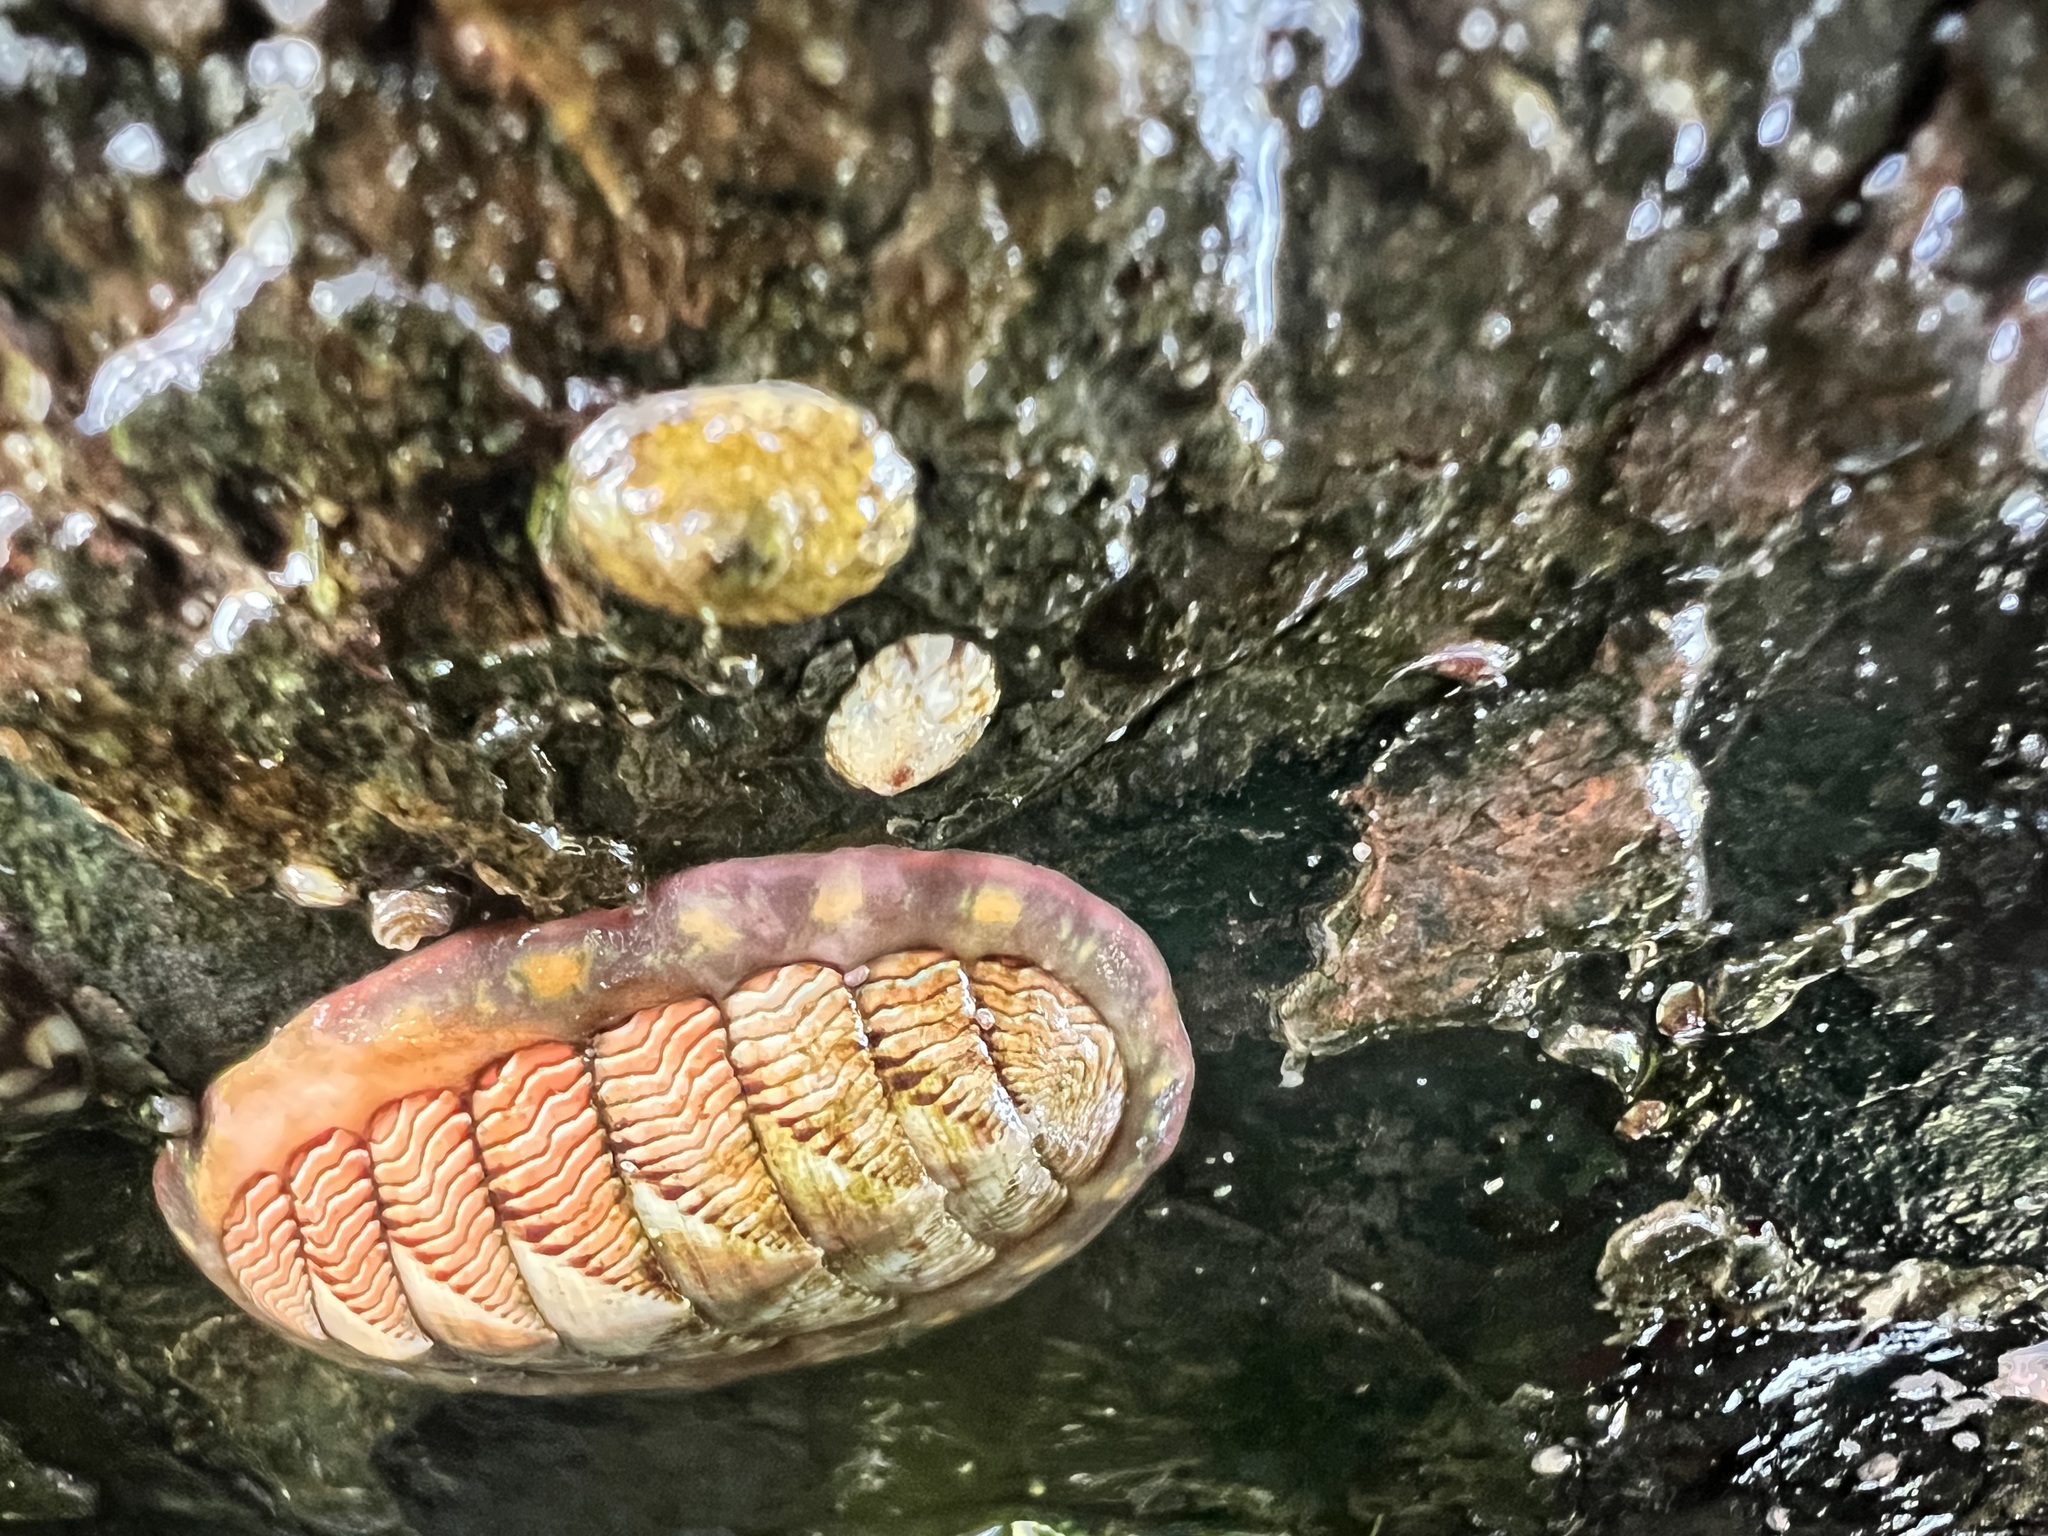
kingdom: Animalia
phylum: Mollusca
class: Polyplacophora
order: Chitonida
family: Tonicellidae
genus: Tonicella
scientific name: Tonicella lineata
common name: Lined chiton
